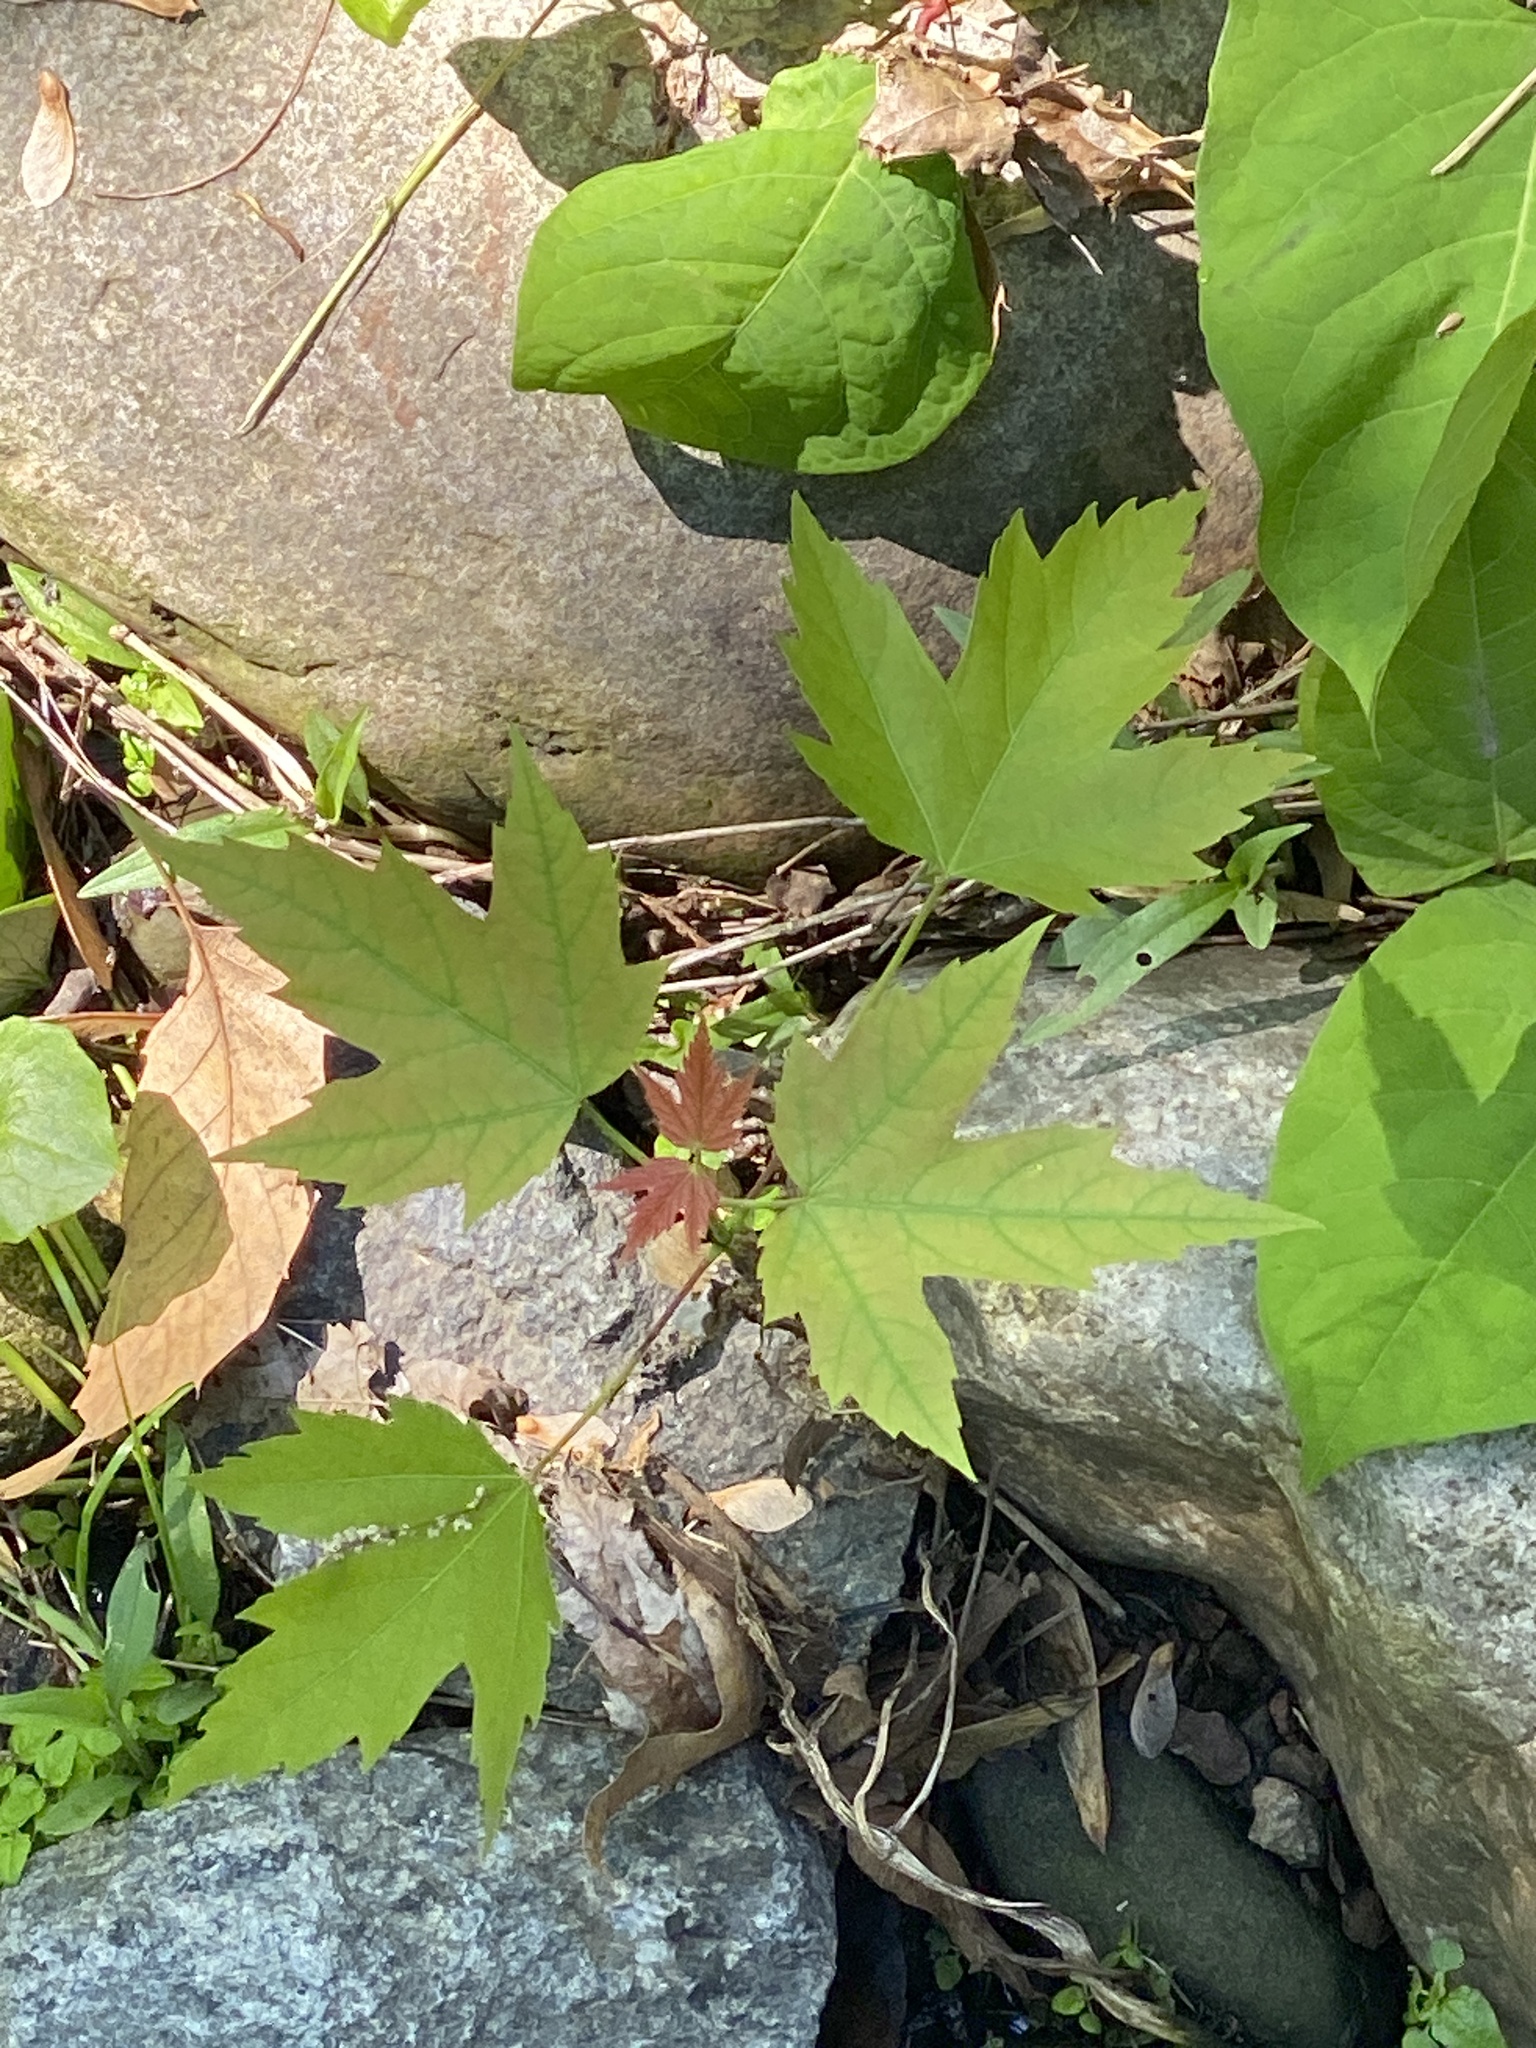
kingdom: Plantae
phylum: Tracheophyta
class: Magnoliopsida
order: Sapindales
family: Sapindaceae
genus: Acer
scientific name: Acer saccharinum
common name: Silver maple
